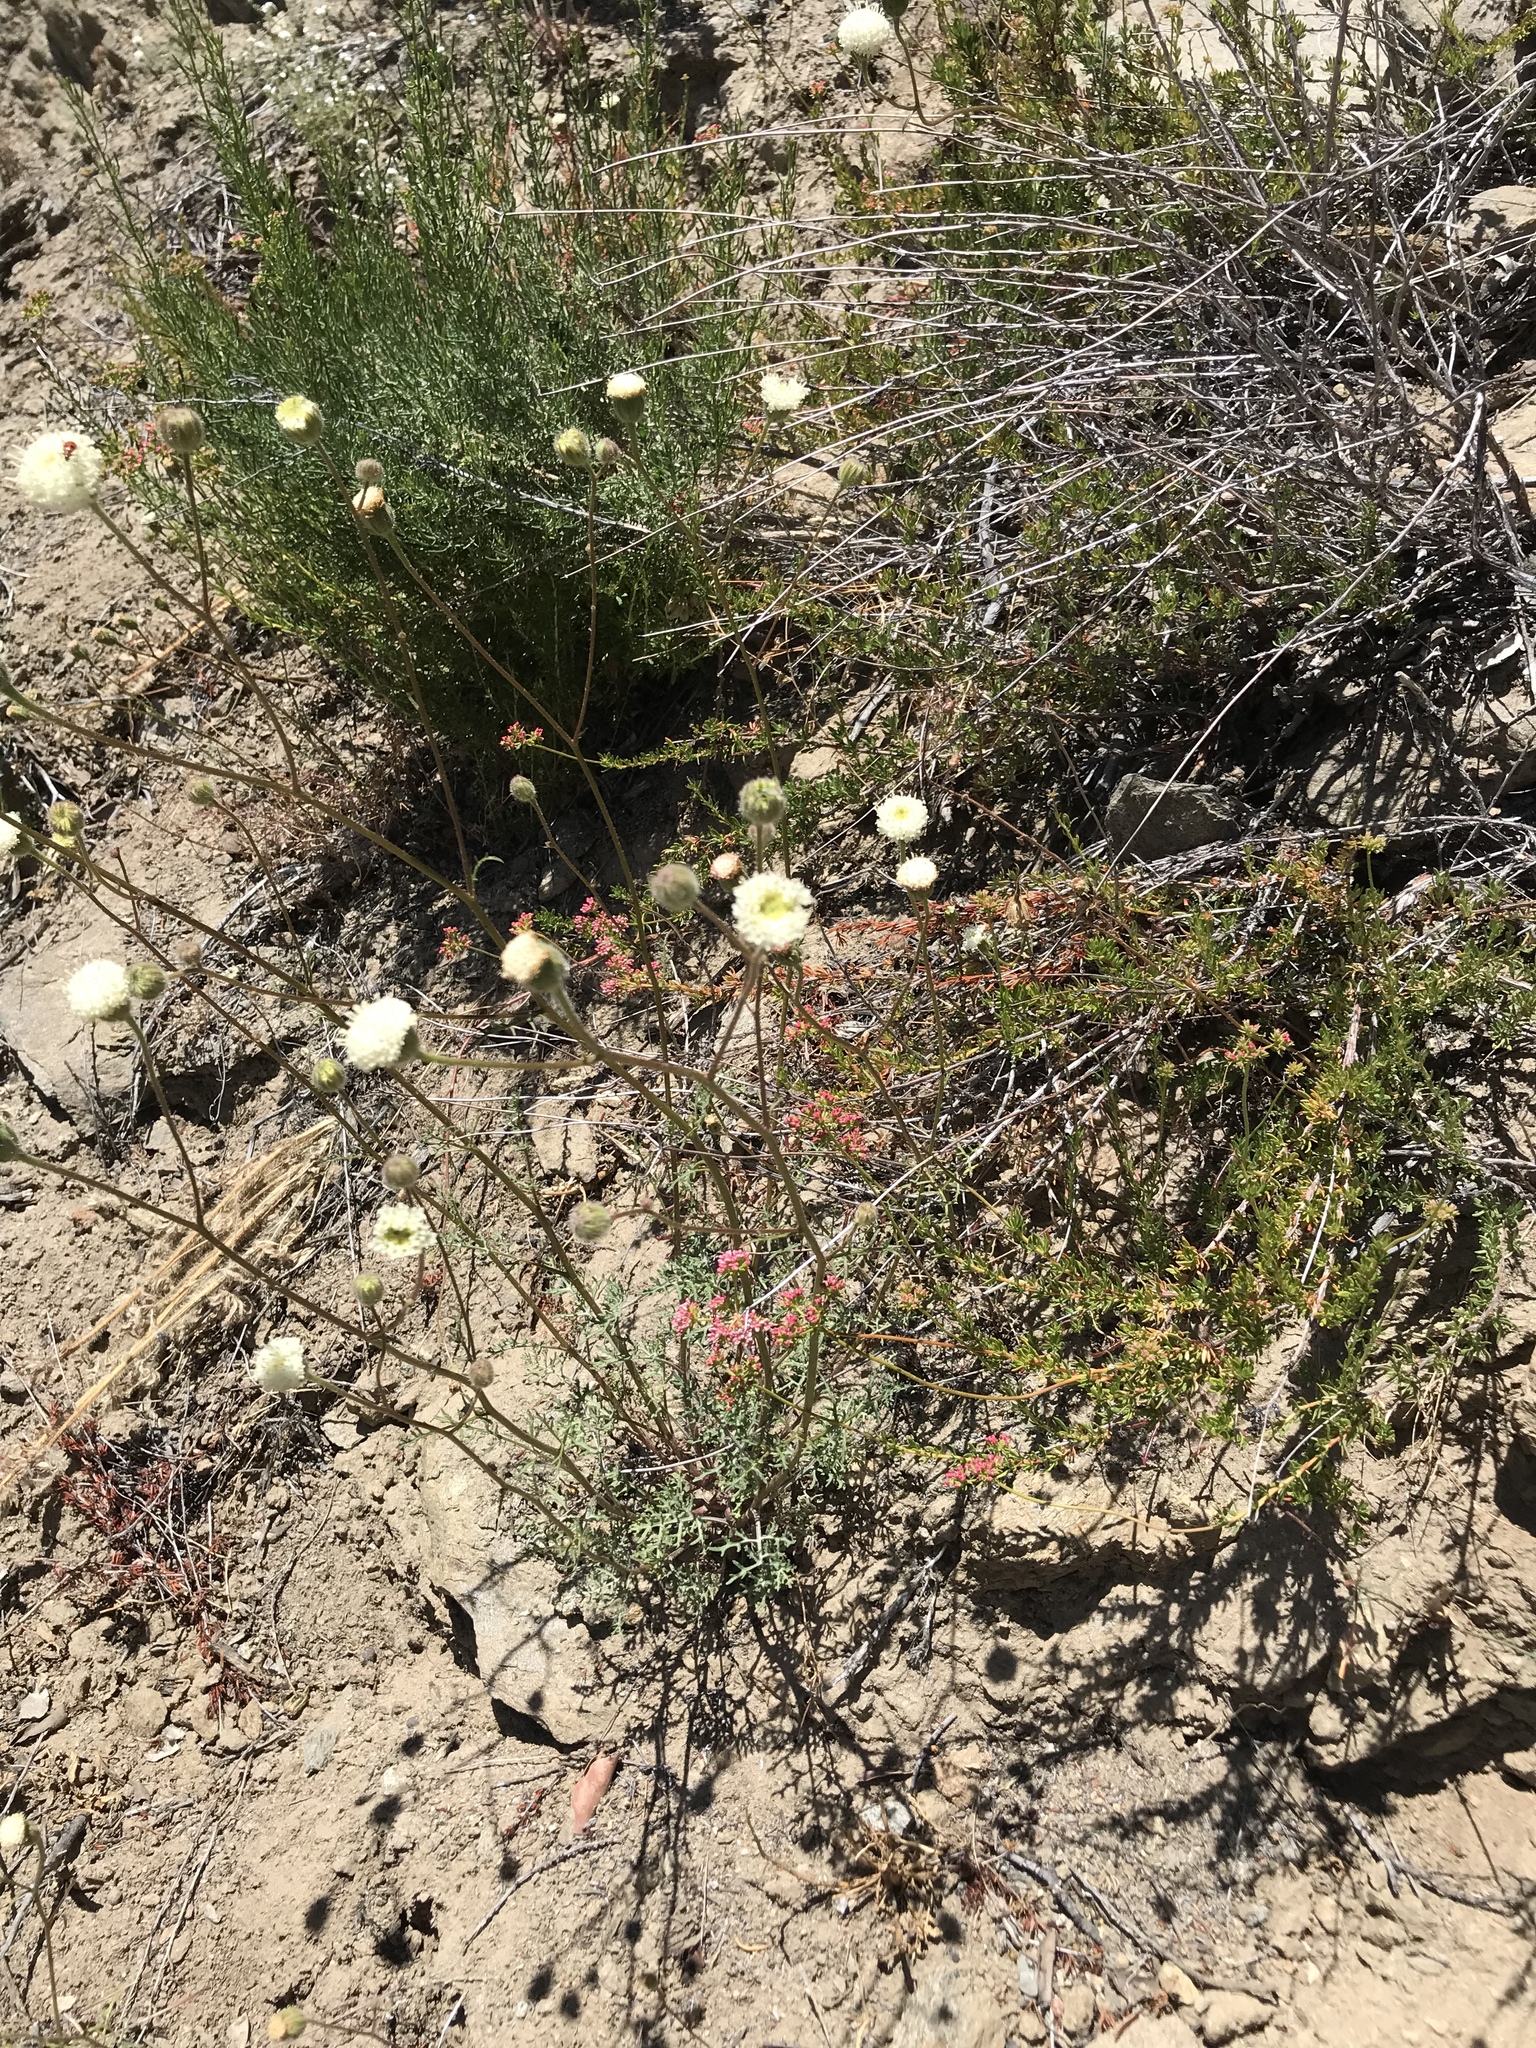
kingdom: Plantae
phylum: Tracheophyta
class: Magnoliopsida
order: Asterales
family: Asteraceae
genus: Chaenactis
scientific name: Chaenactis artemisiifolia
